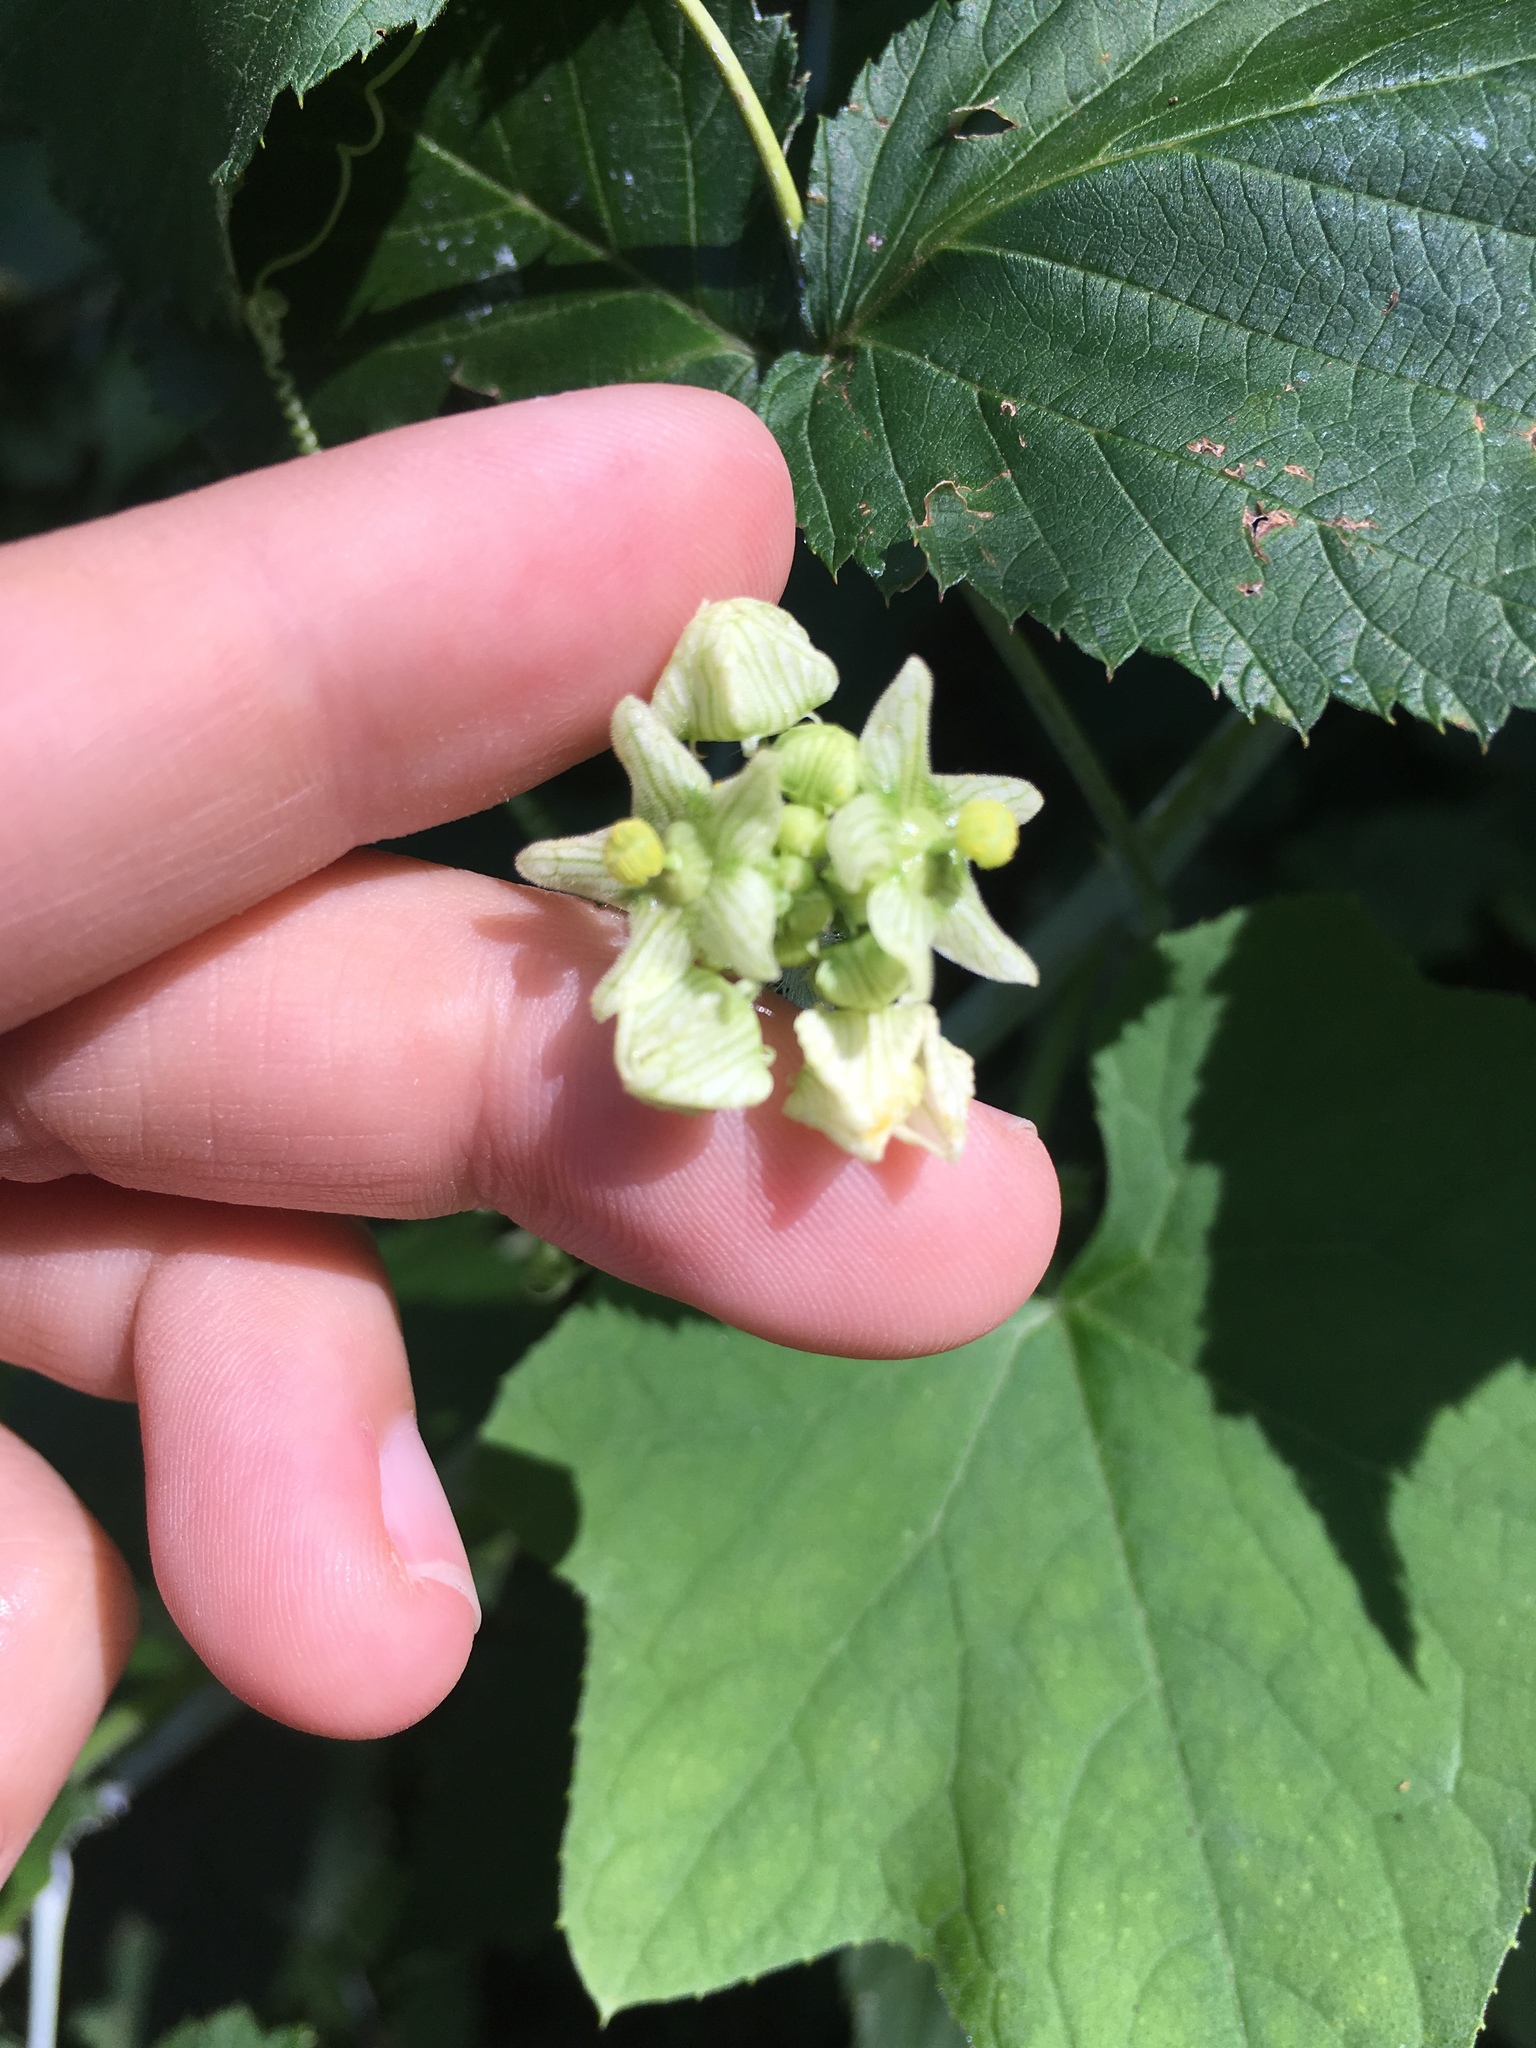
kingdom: Plantae
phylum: Tracheophyta
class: Magnoliopsida
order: Cucurbitales
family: Cucurbitaceae
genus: Sicyos
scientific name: Sicyos angulatus
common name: Angled burr cucumber
